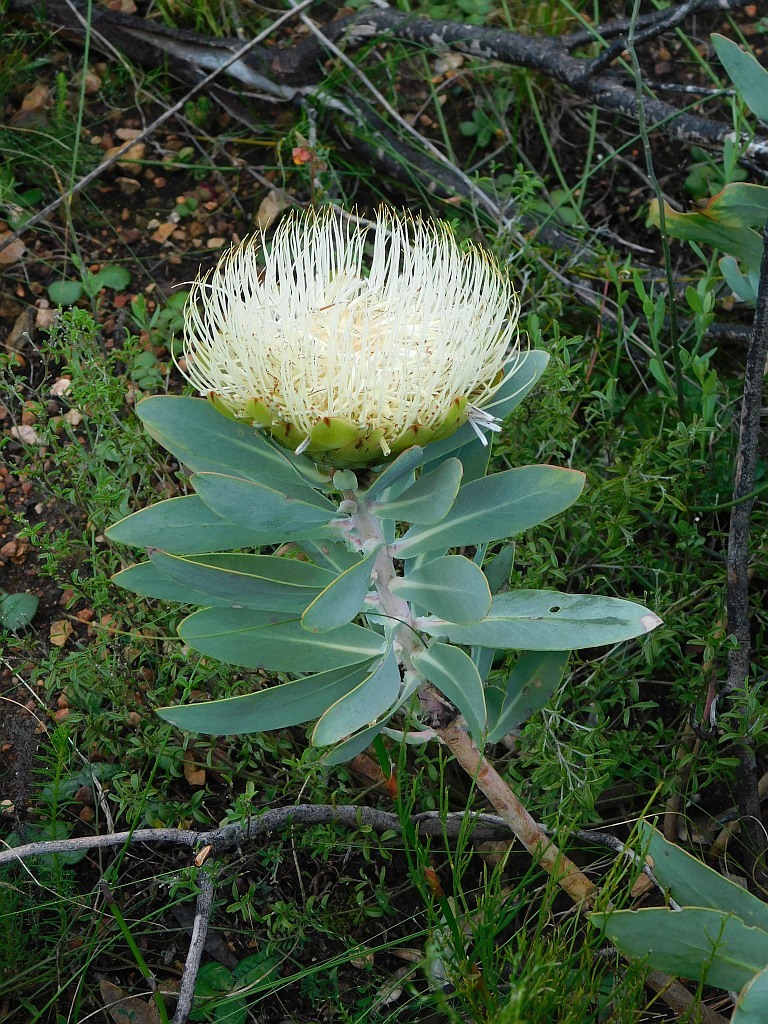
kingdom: Plantae
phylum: Tracheophyta
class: Magnoliopsida
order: Proteales
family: Proteaceae
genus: Protea
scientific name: Protea nitida
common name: Tree protea
